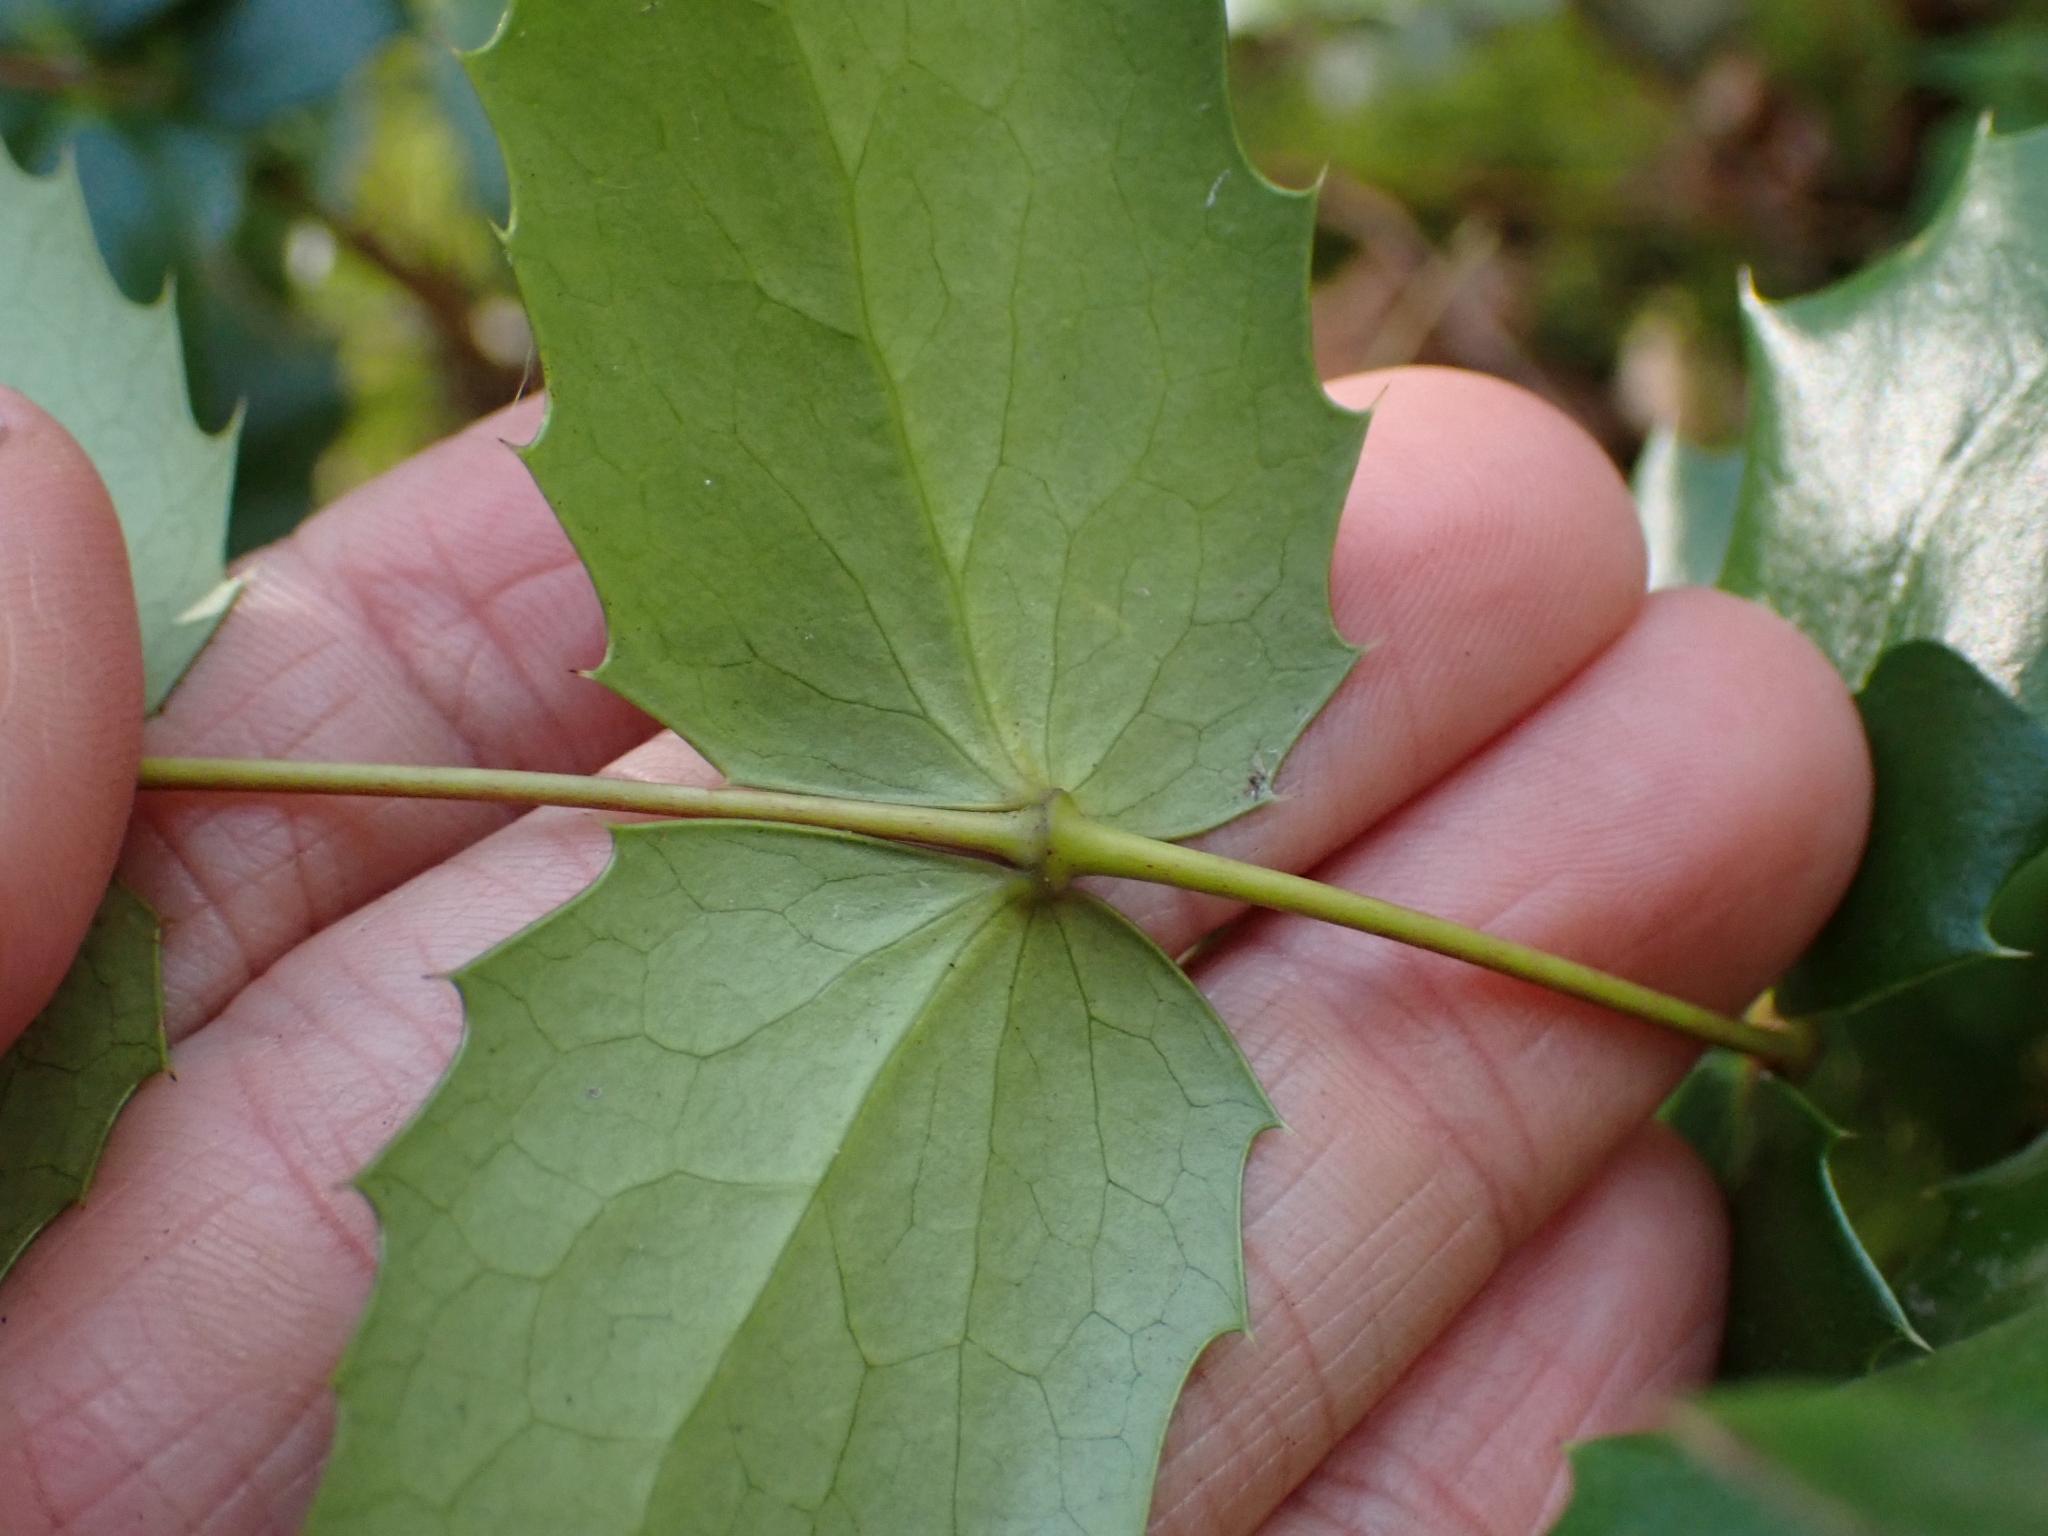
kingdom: Plantae
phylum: Tracheophyta
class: Magnoliopsida
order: Ranunculales
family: Berberidaceae
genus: Mahonia
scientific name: Mahonia nervosa
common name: Cascade oregon-grape
